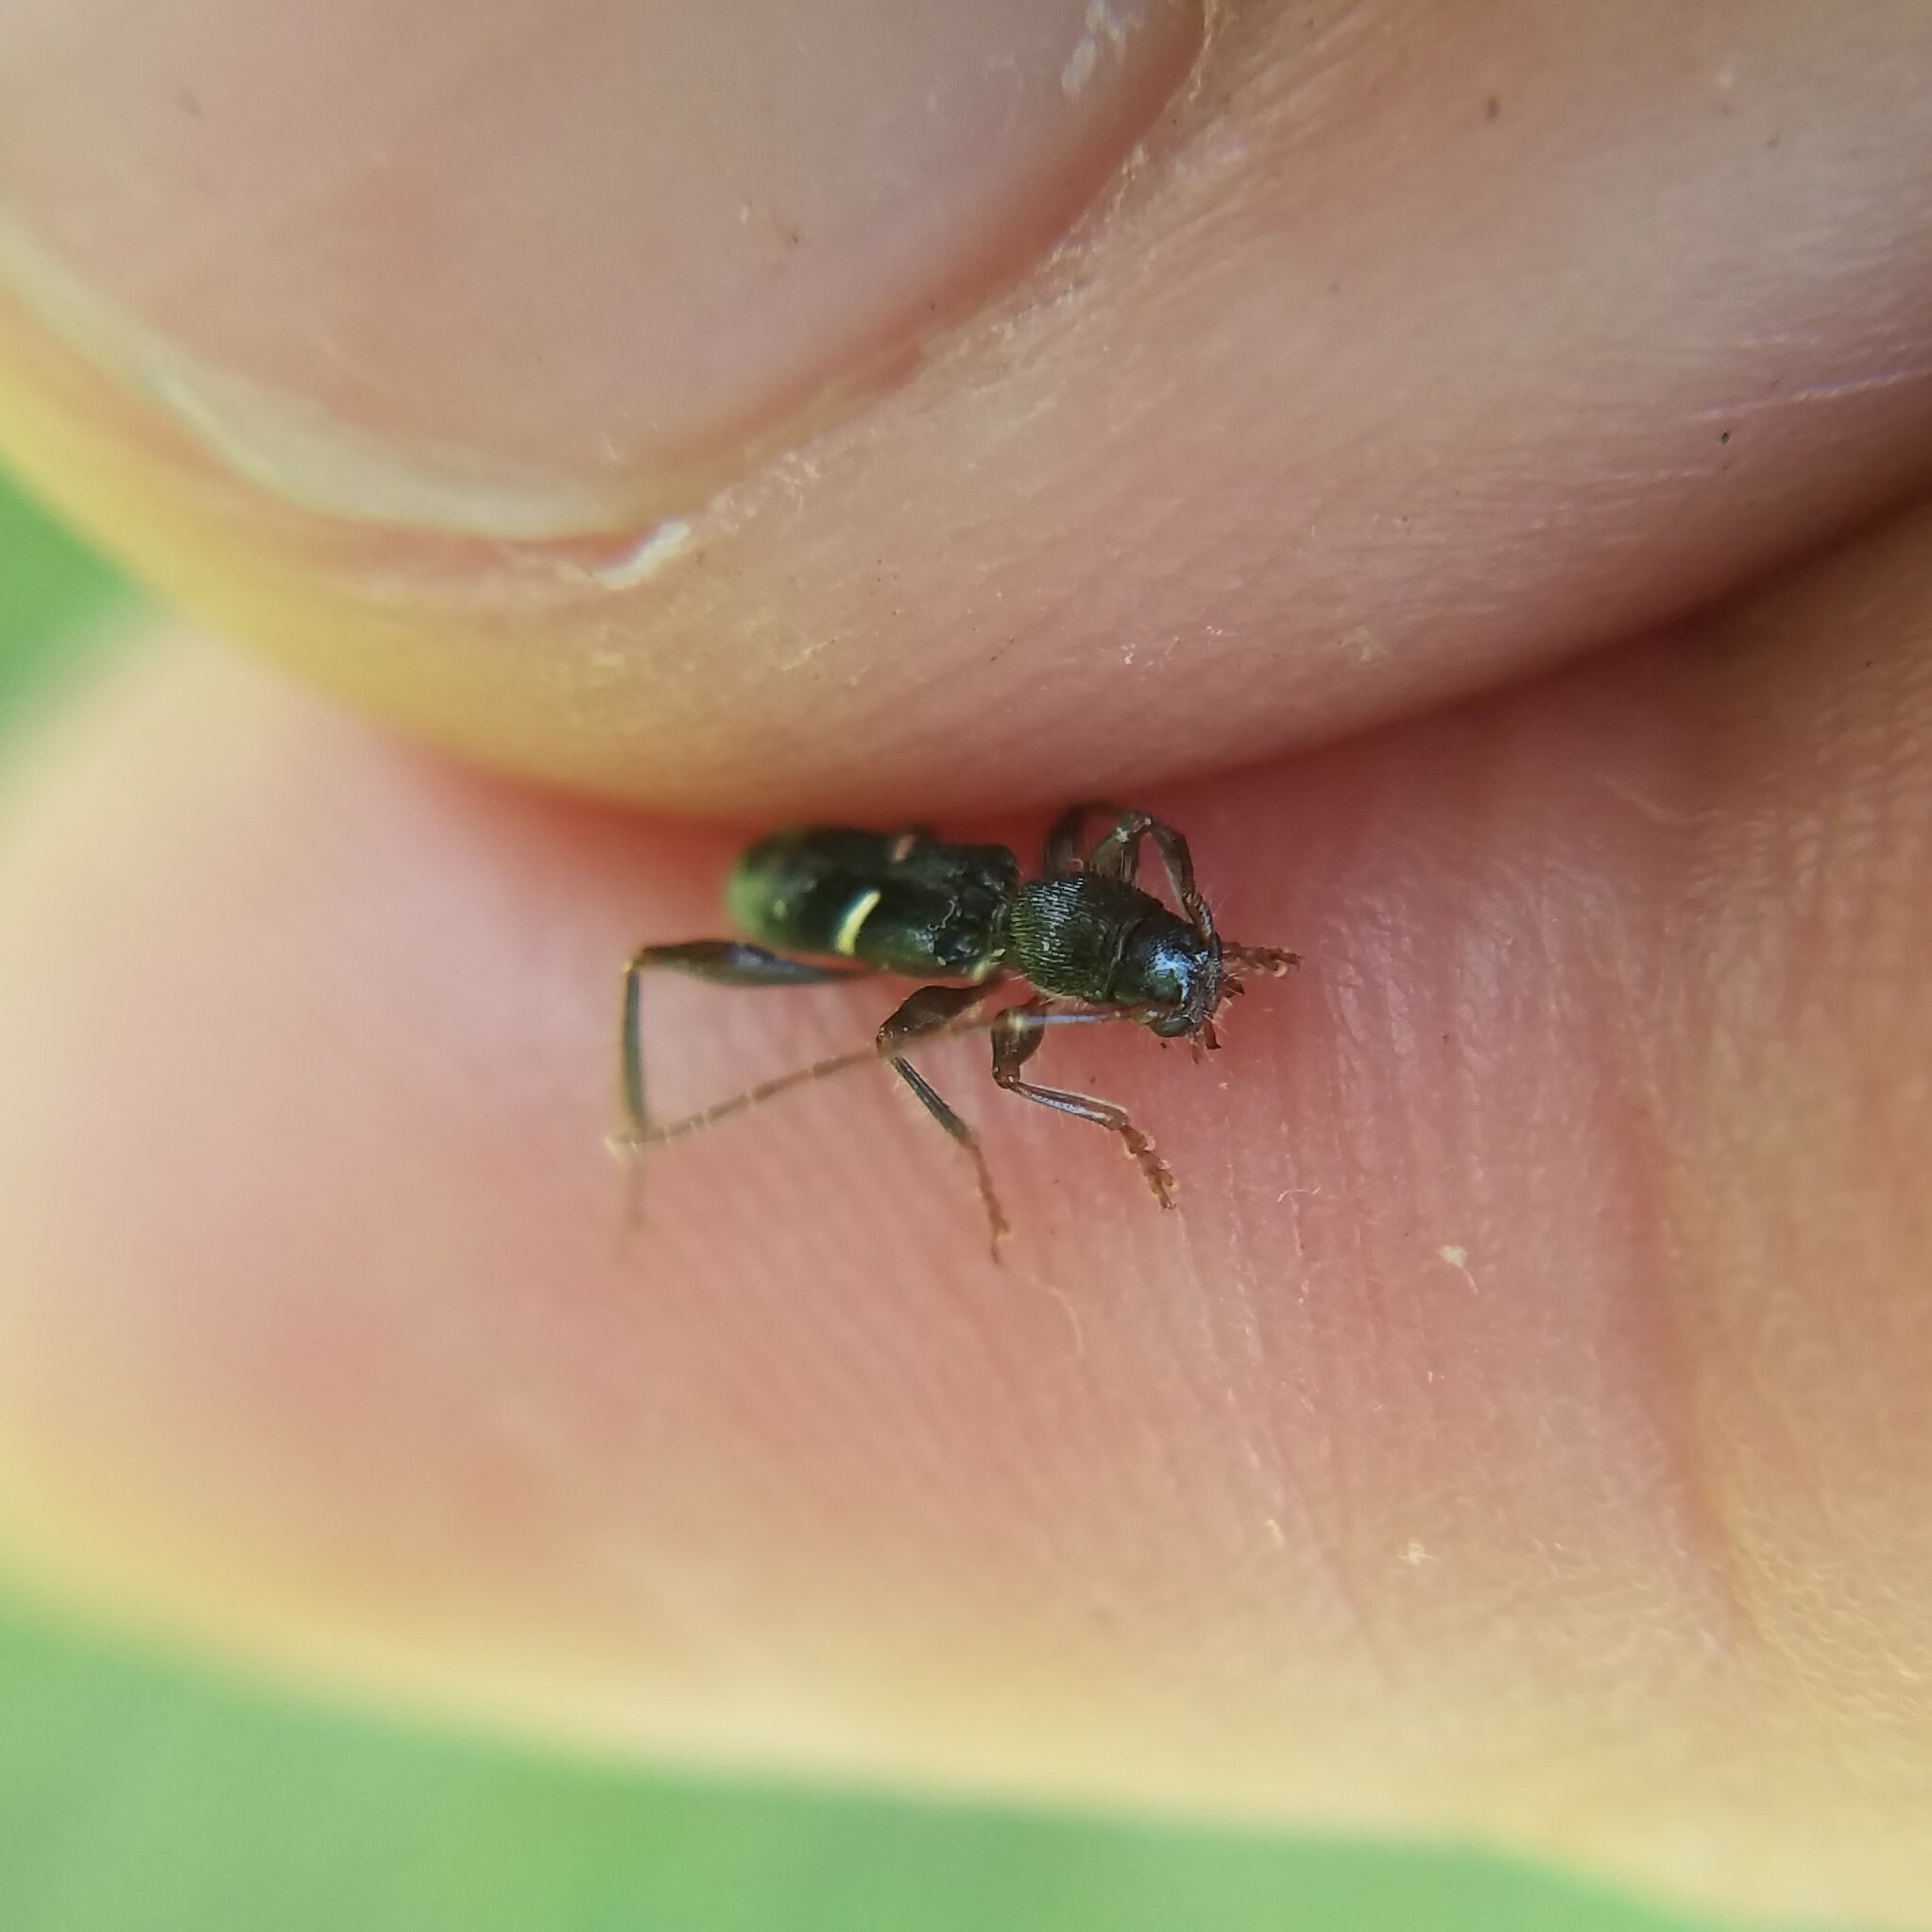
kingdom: Animalia
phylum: Arthropoda
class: Insecta
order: Coleoptera
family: Cerambycidae
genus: Euderces
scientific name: Euderces picipes
